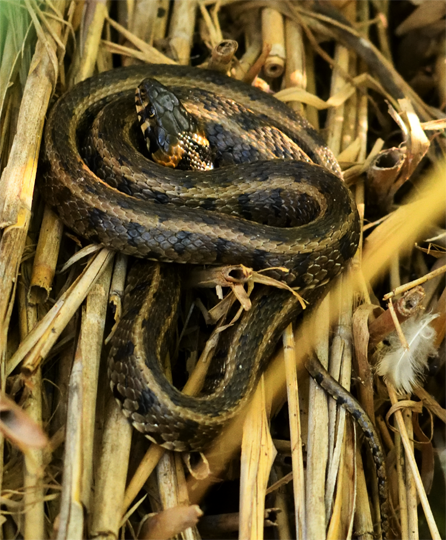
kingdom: Animalia
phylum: Chordata
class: Squamata
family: Colubridae
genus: Natrix
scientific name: Natrix natrix
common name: Grass snake
